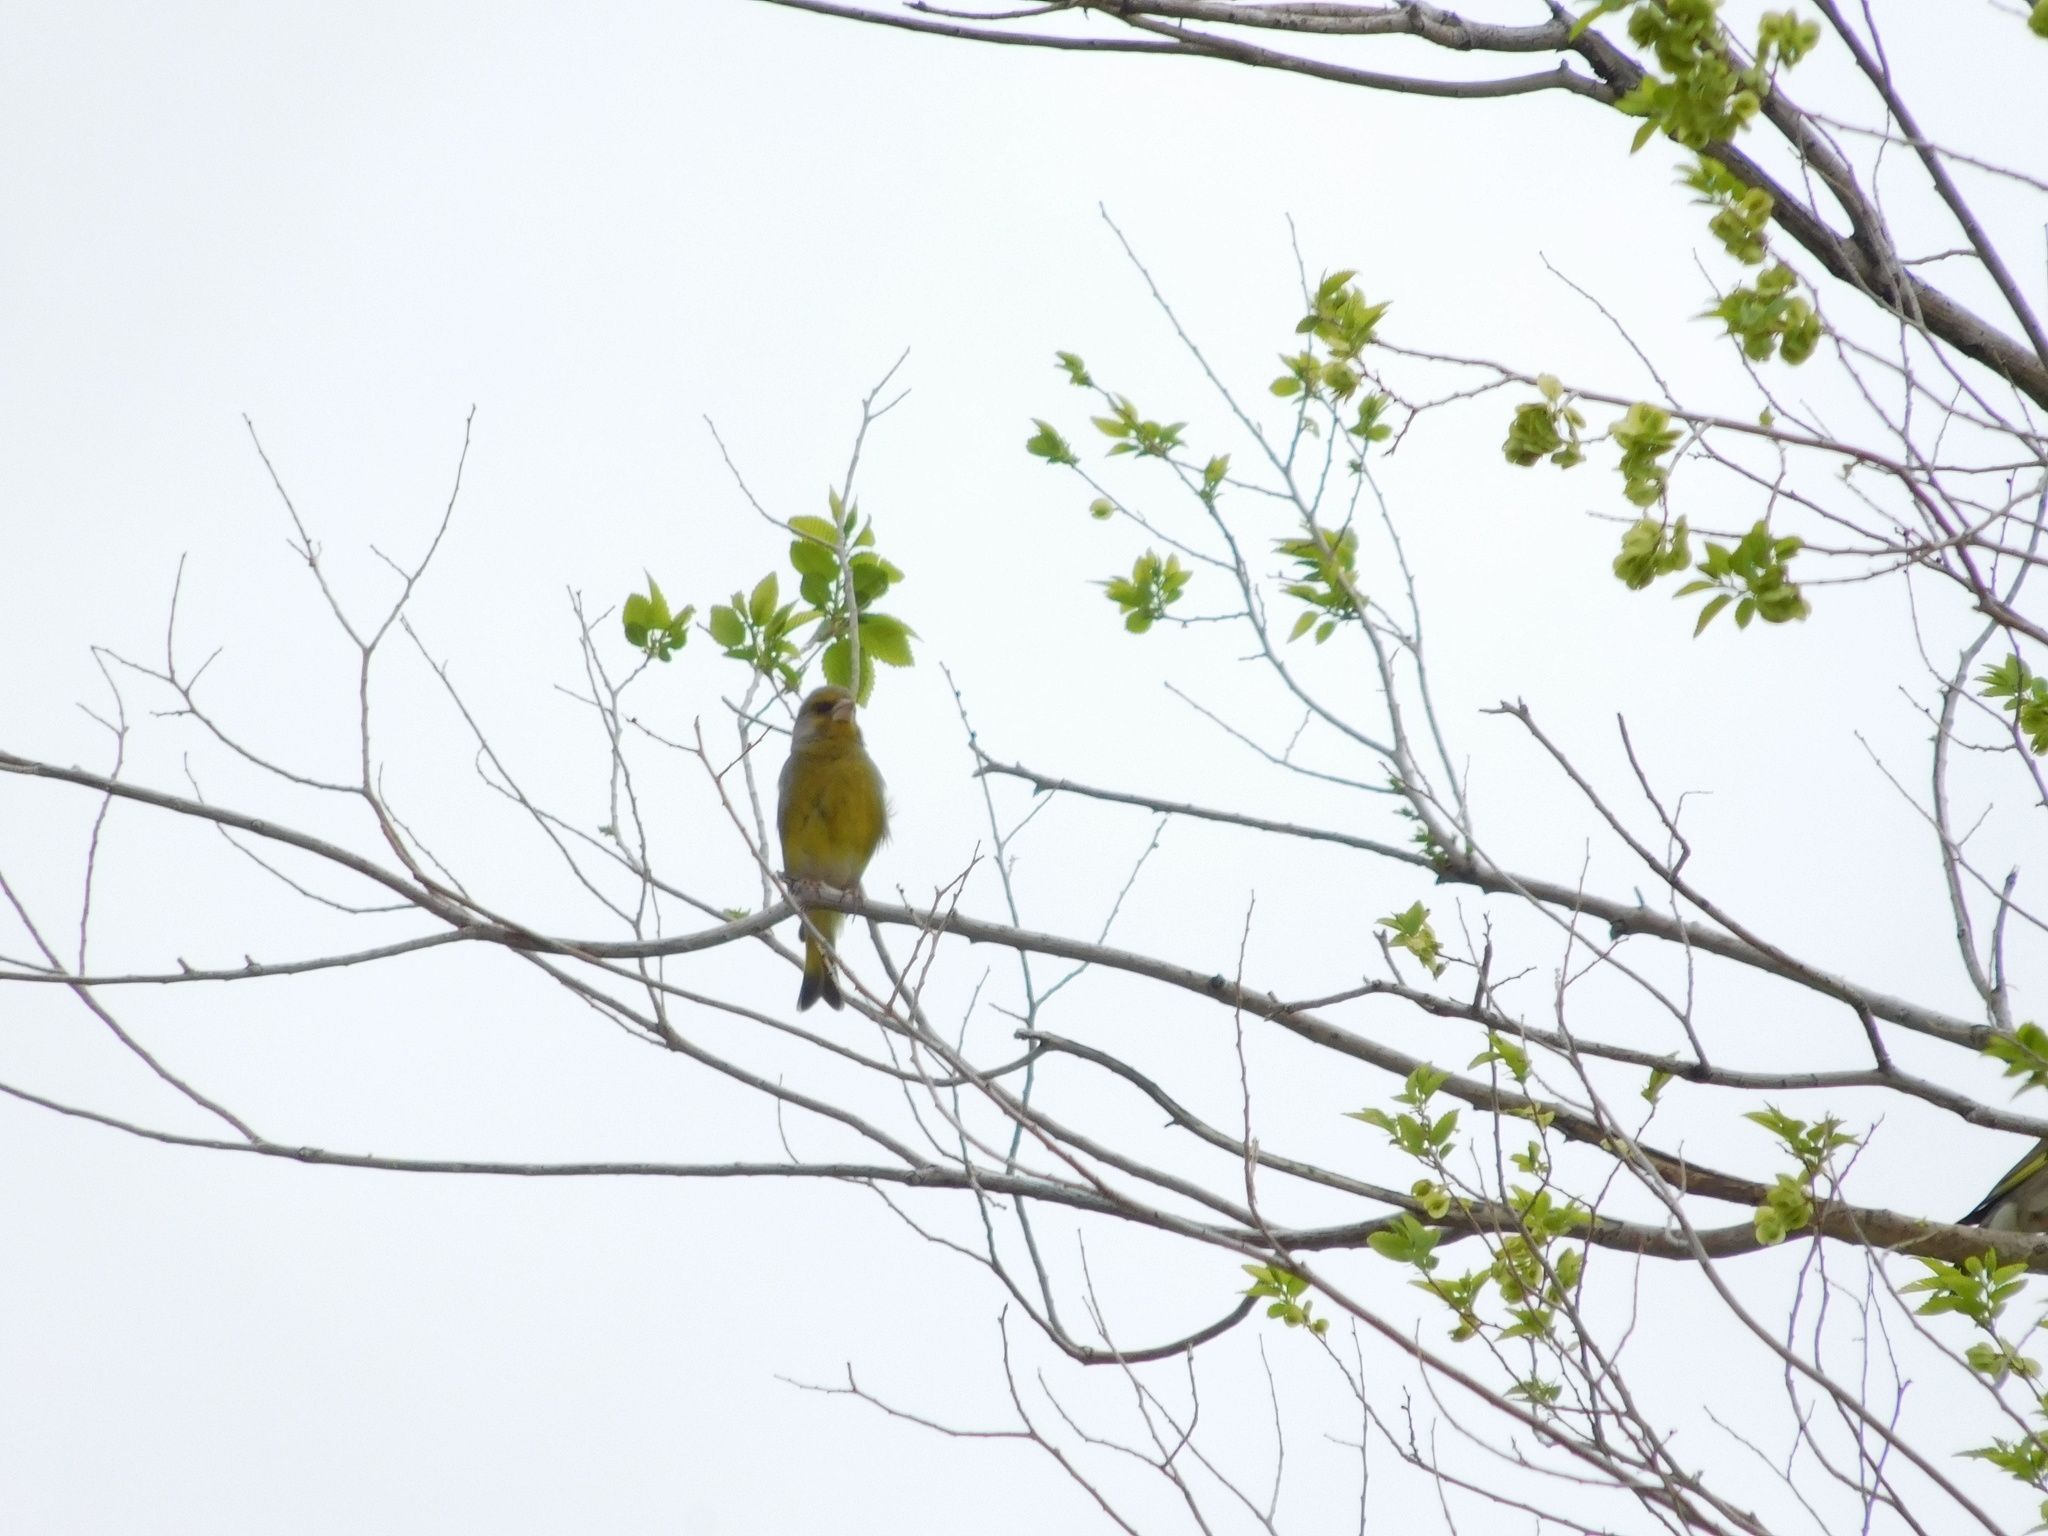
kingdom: Plantae
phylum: Tracheophyta
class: Liliopsida
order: Poales
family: Poaceae
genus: Chloris
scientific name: Chloris chloris
